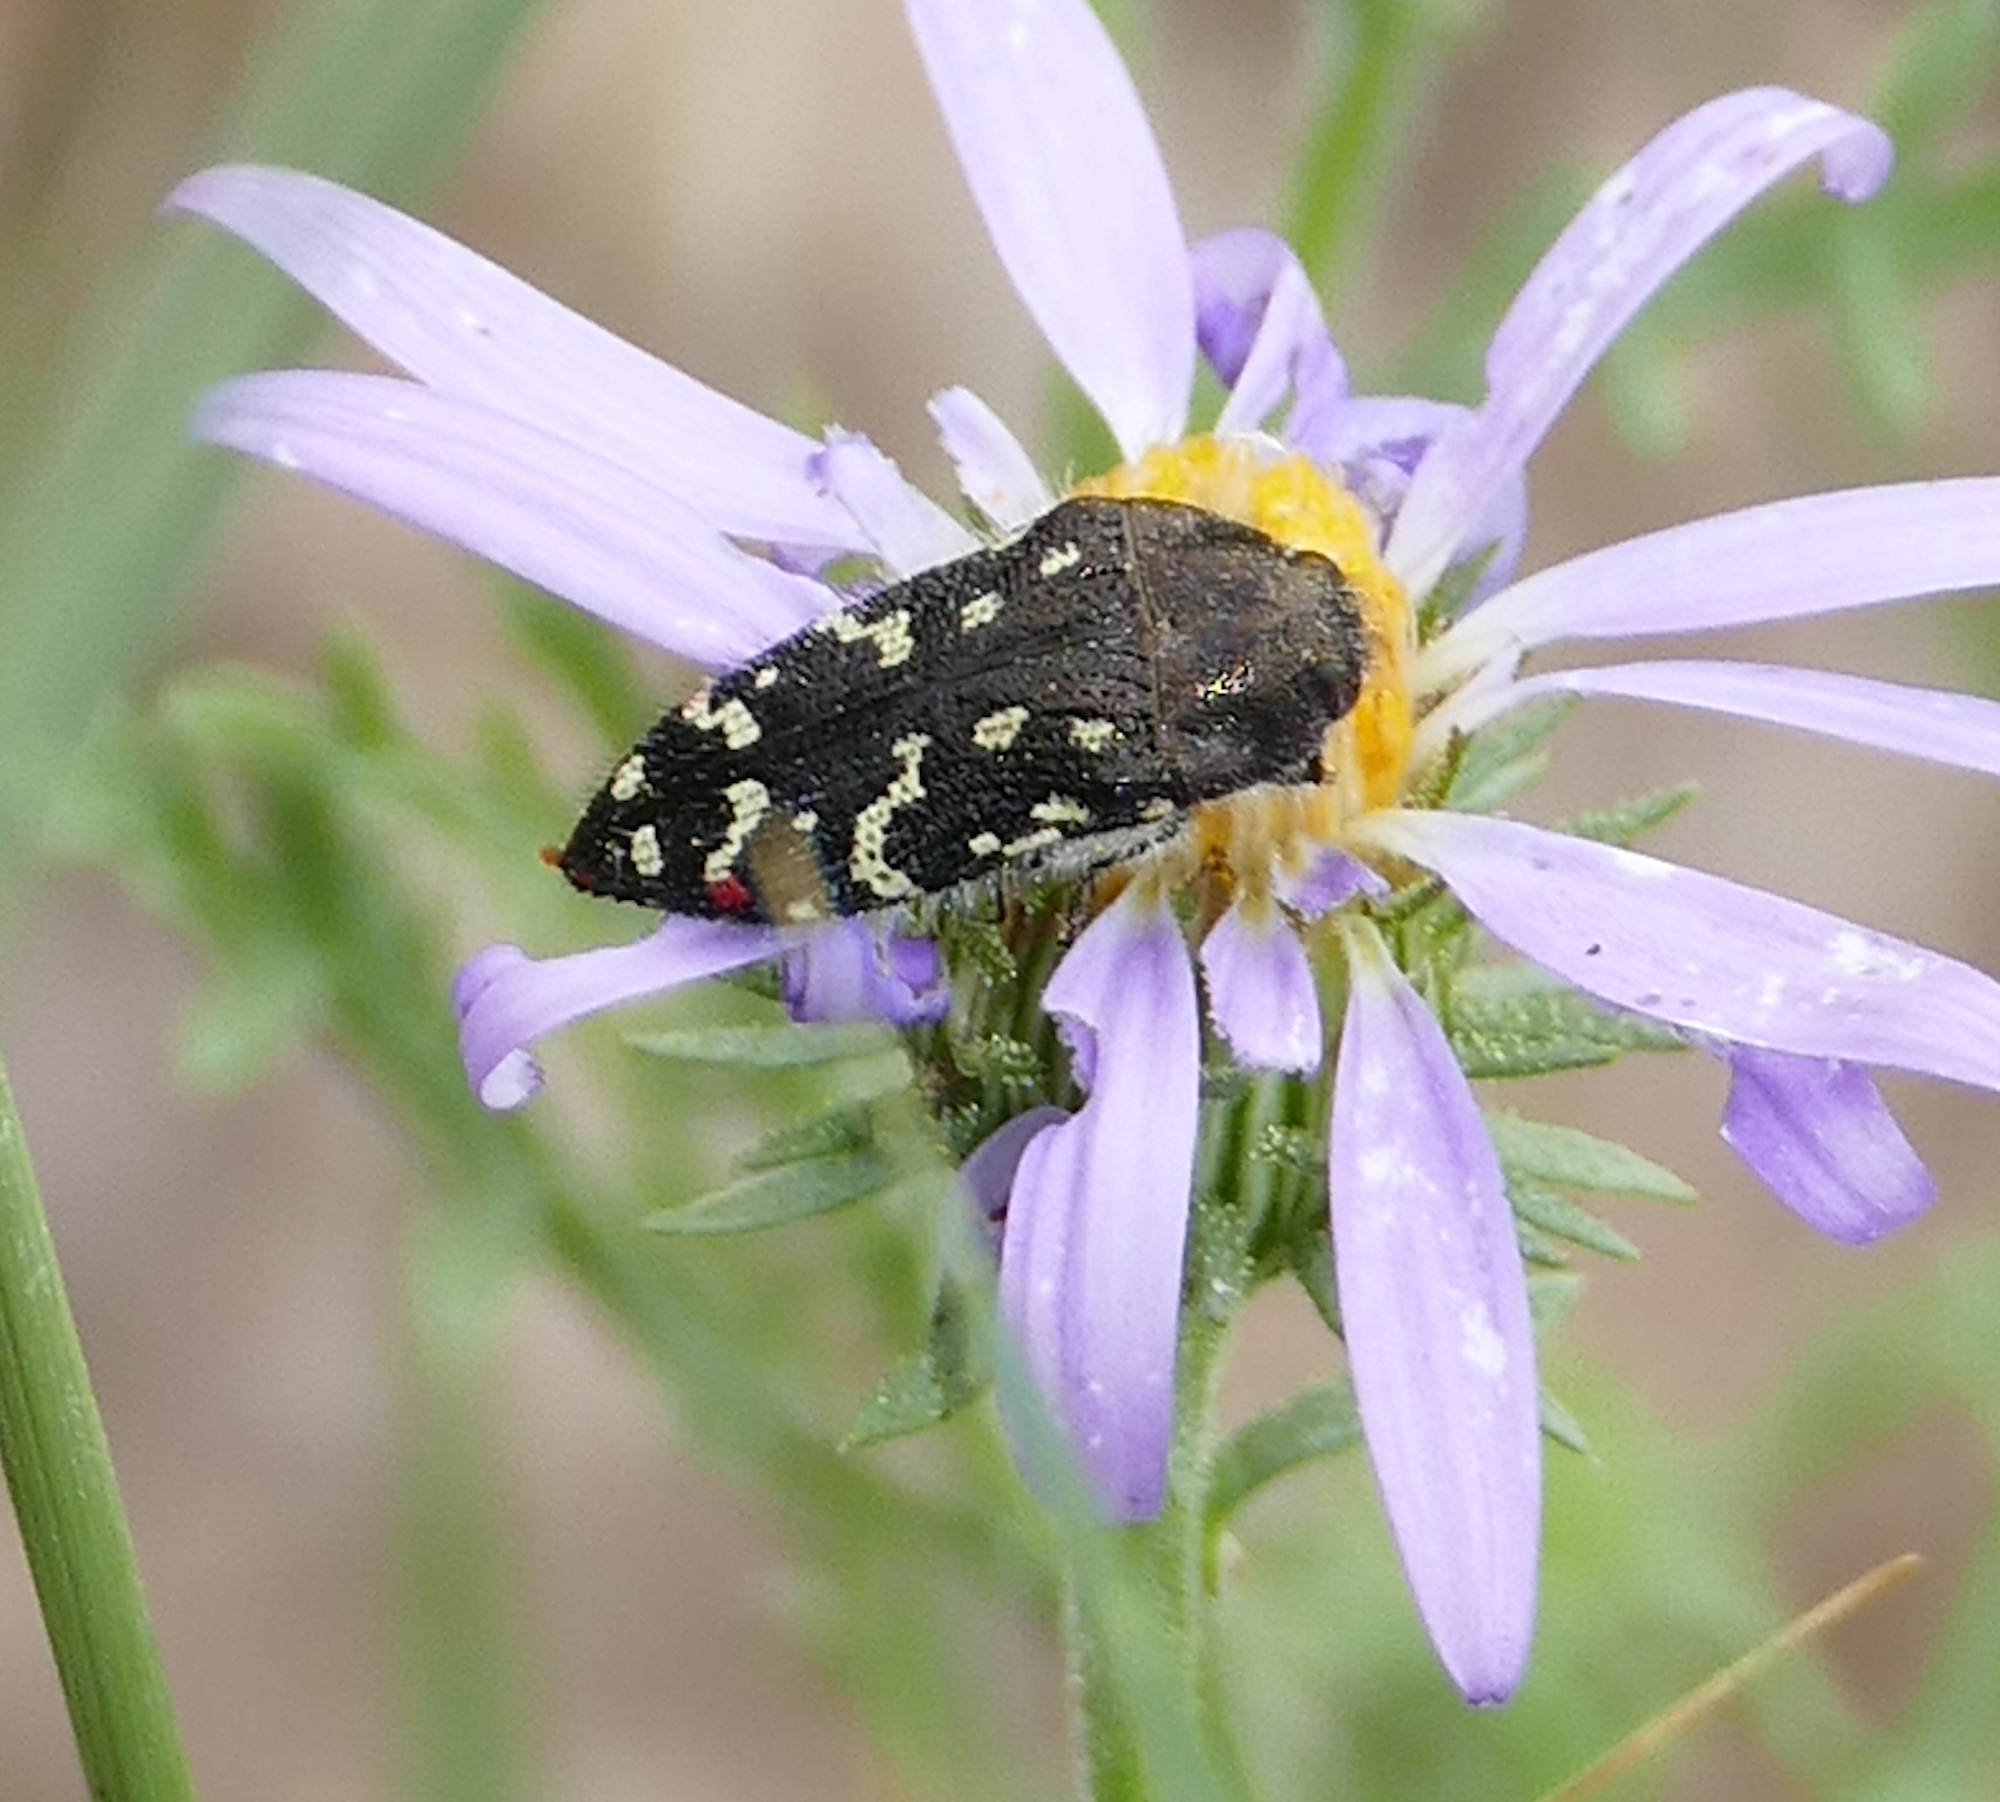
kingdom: Animalia
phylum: Arthropoda
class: Insecta
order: Coleoptera
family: Buprestidae
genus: Acmaeodera
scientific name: Acmaeodera rubronotata
